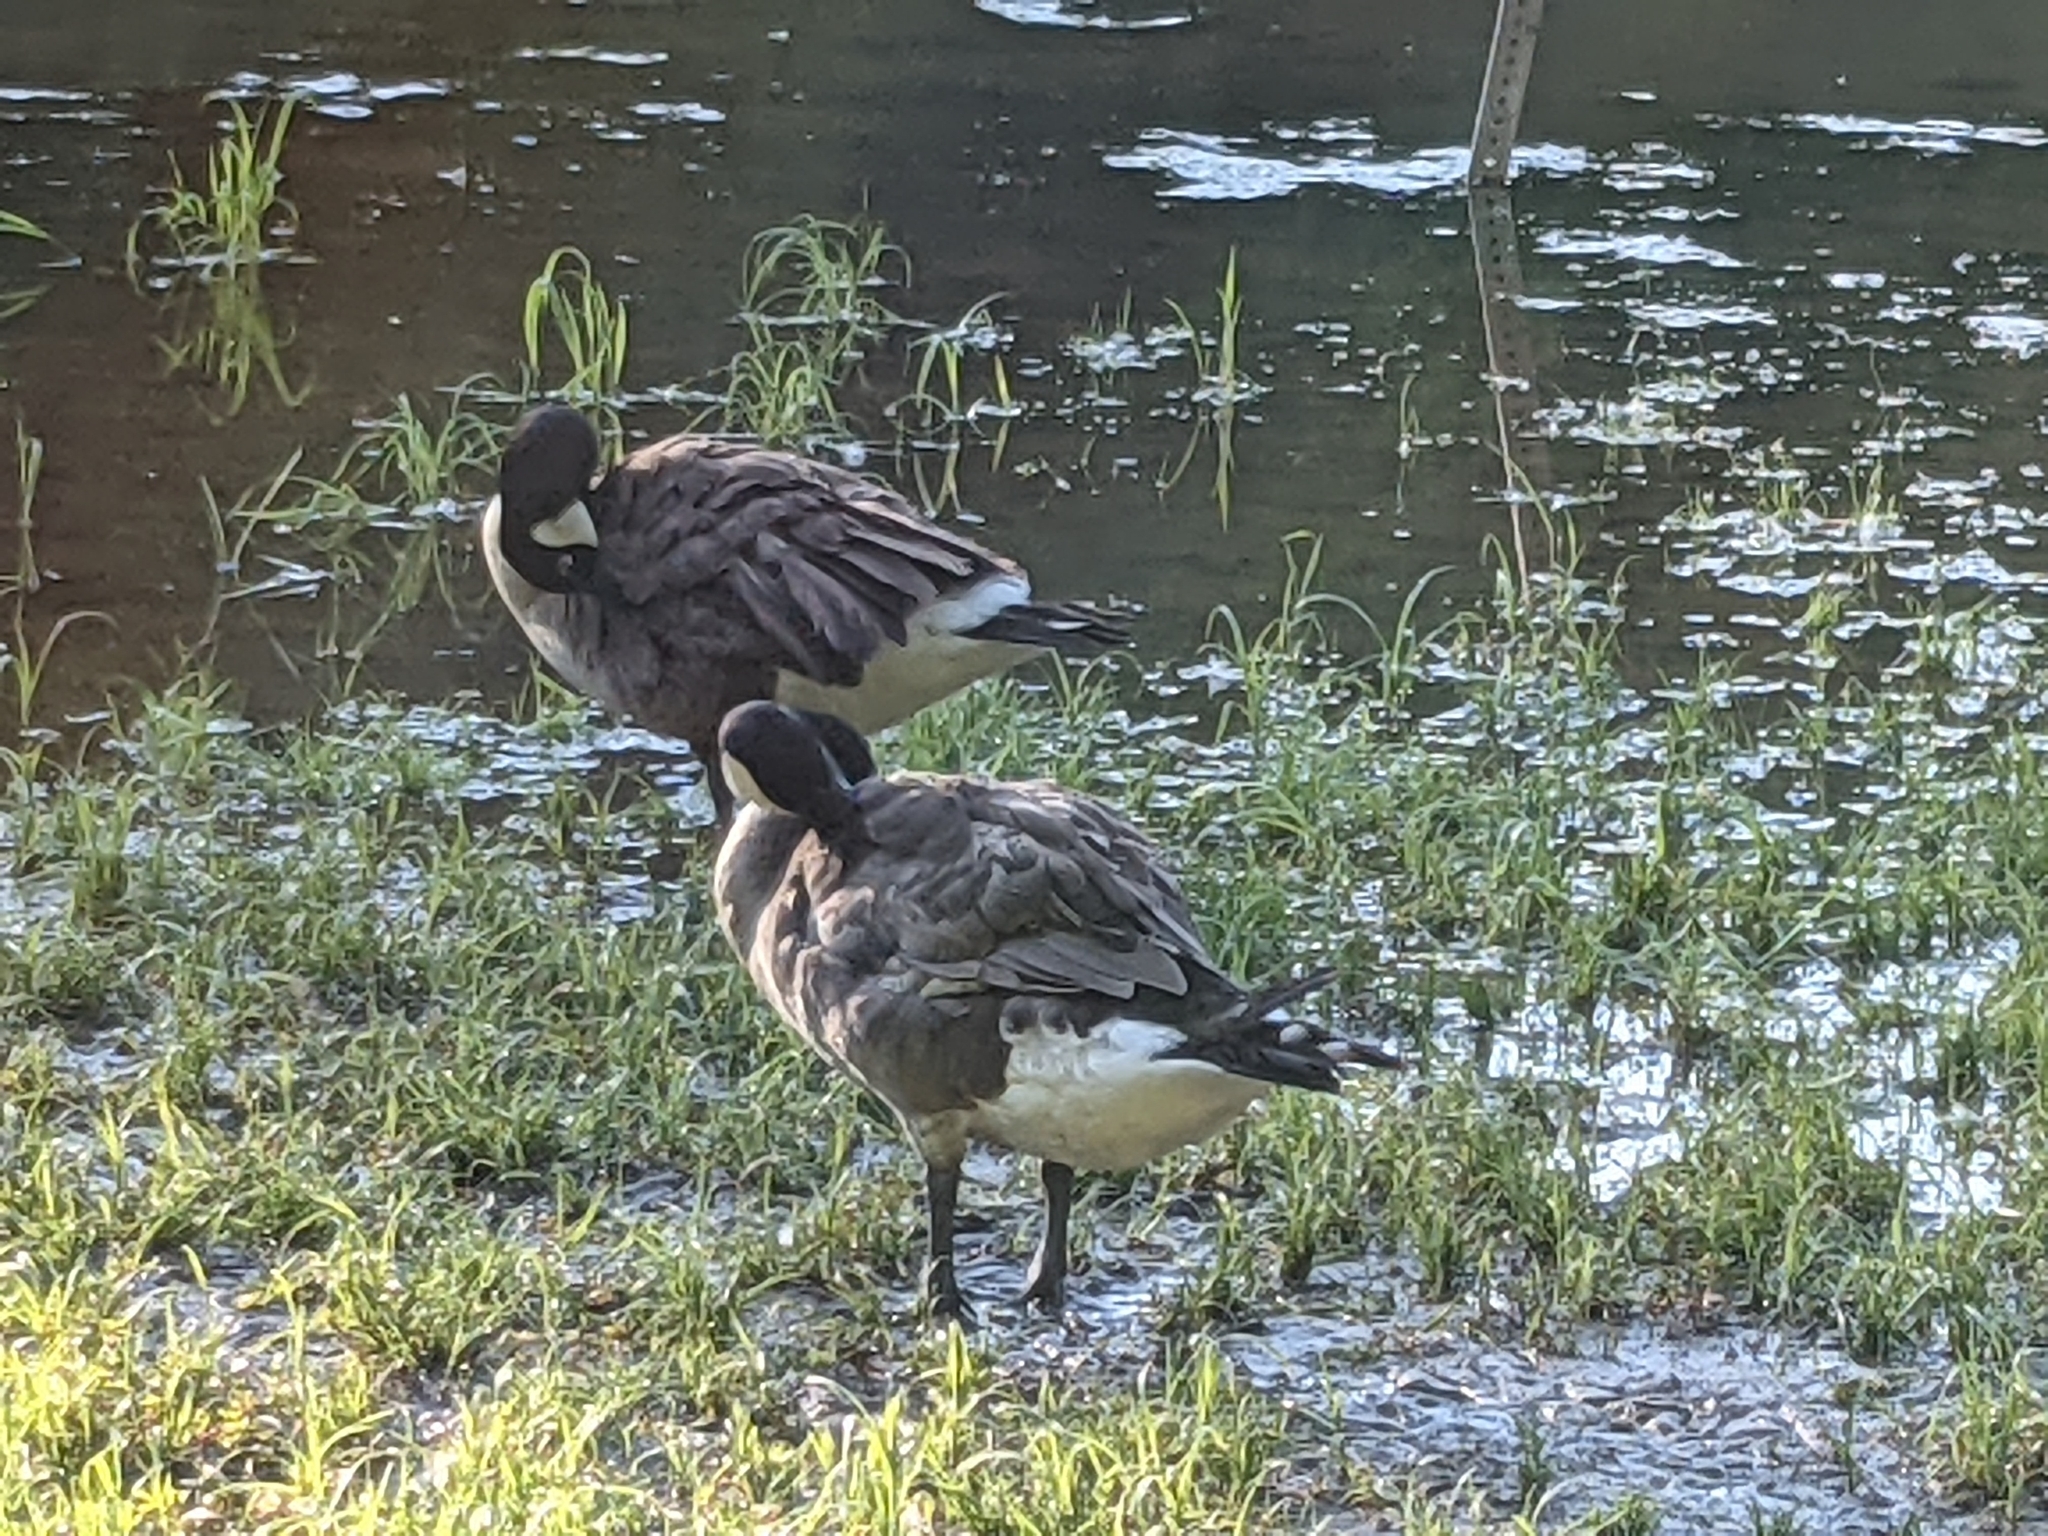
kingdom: Animalia
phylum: Chordata
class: Aves
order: Anseriformes
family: Anatidae
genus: Branta
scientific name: Branta canadensis
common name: Canada goose
